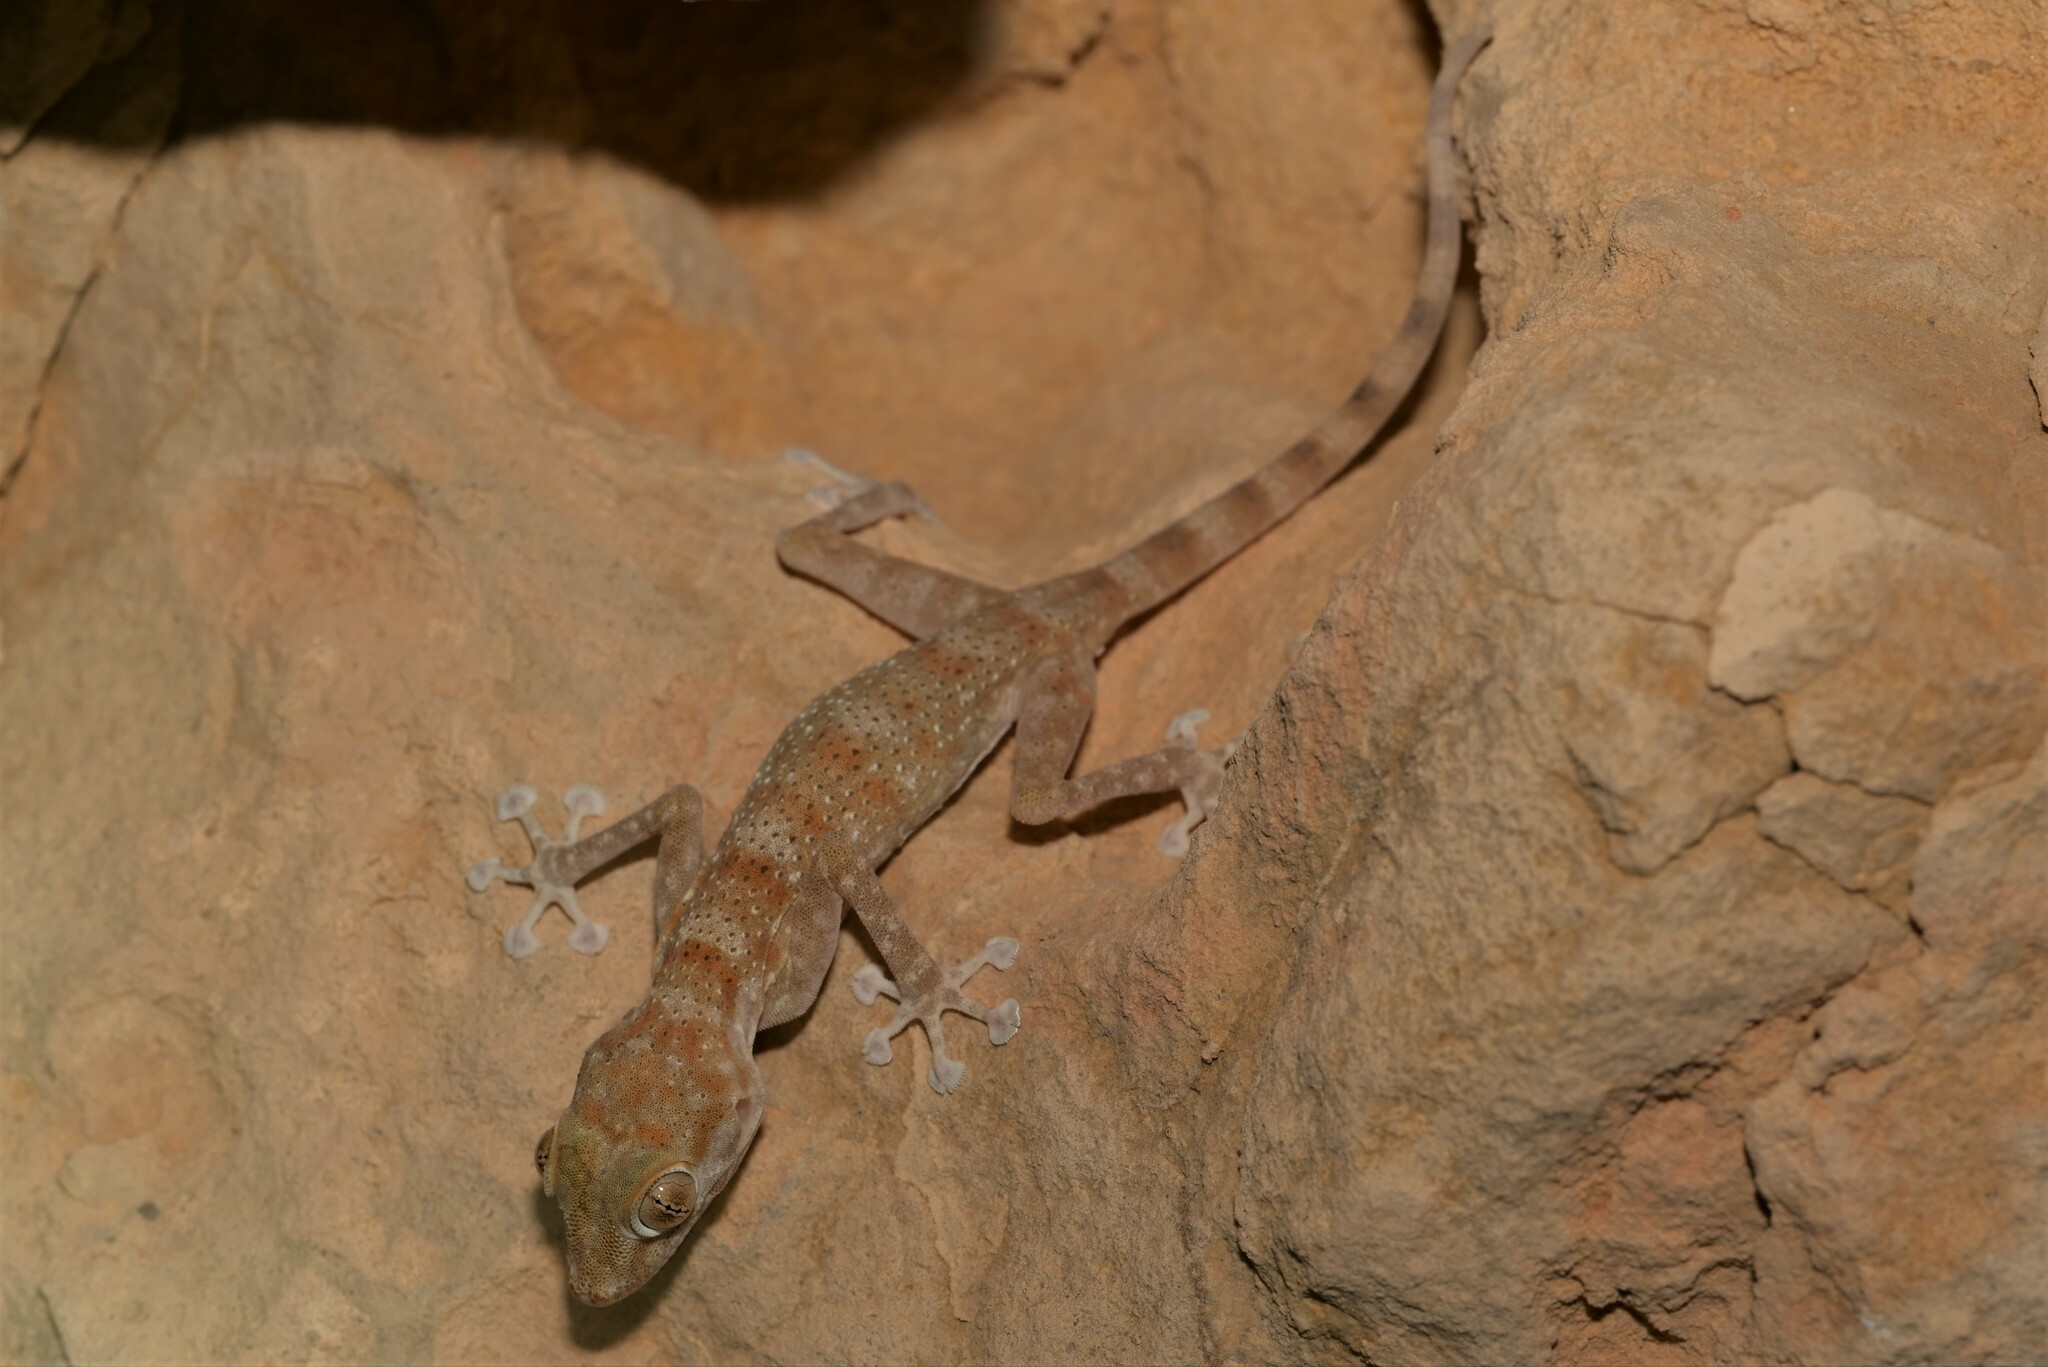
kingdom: Animalia
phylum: Chordata
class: Squamata
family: Phyllodactylidae
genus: Ptyodactylus
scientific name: Ptyodactylus hasselquistii
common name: Hasselquist’s fan-footed gecko
